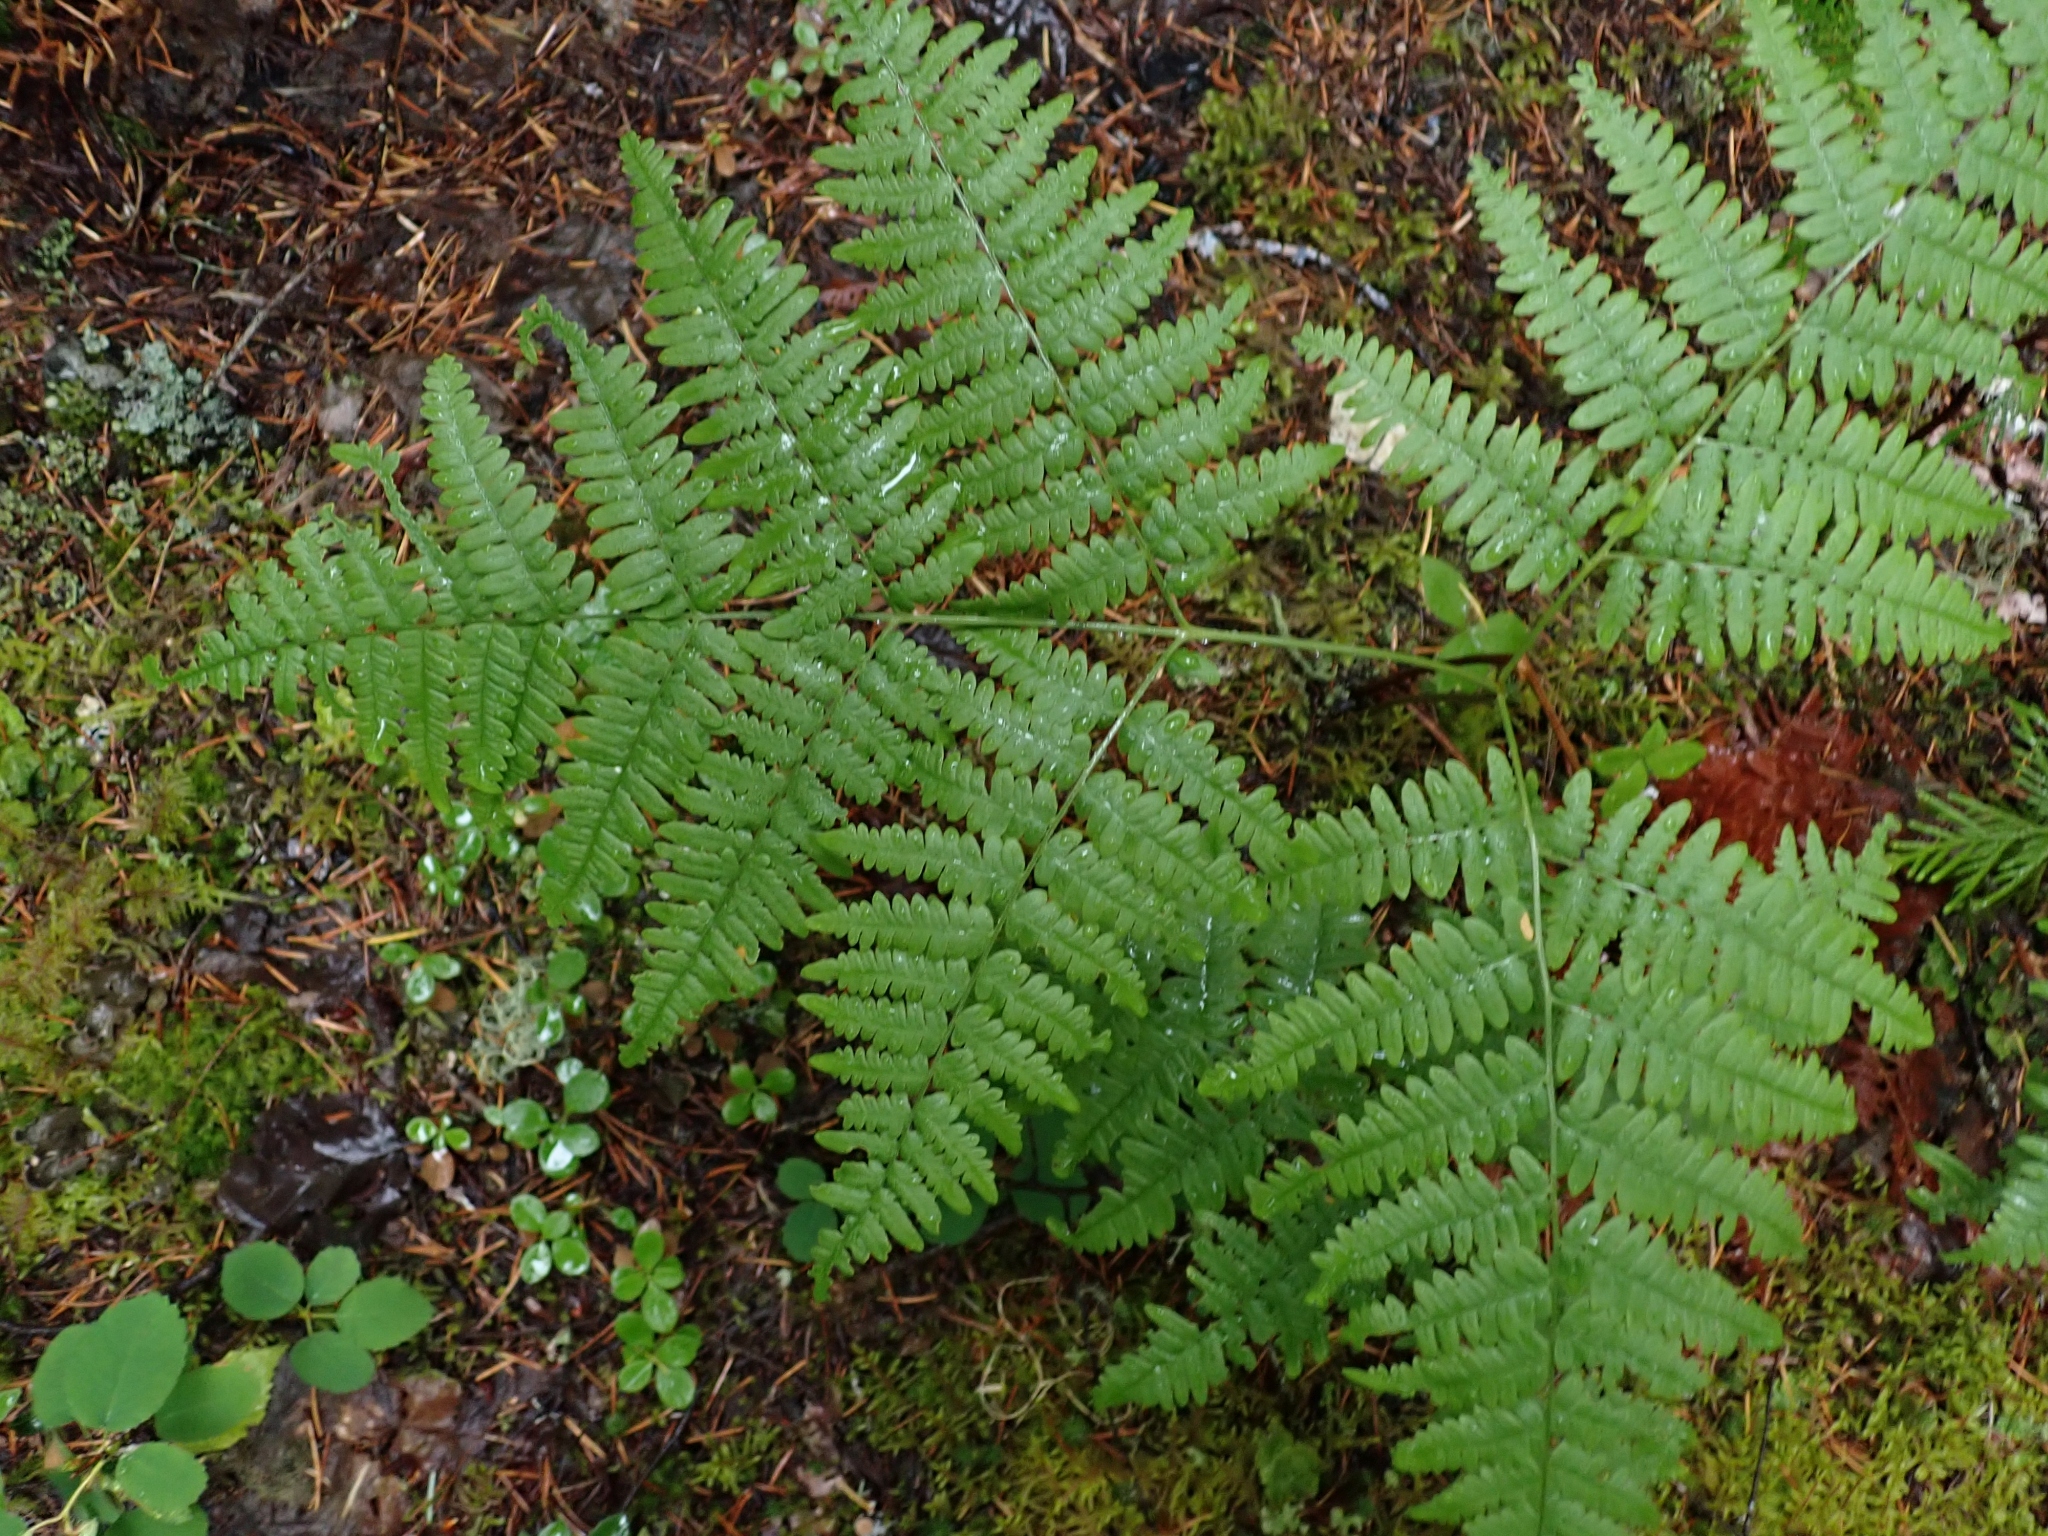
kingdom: Plantae
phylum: Tracheophyta
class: Polypodiopsida
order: Polypodiales
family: Dennstaedtiaceae
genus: Pteridium
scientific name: Pteridium aquilinum
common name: Bracken
